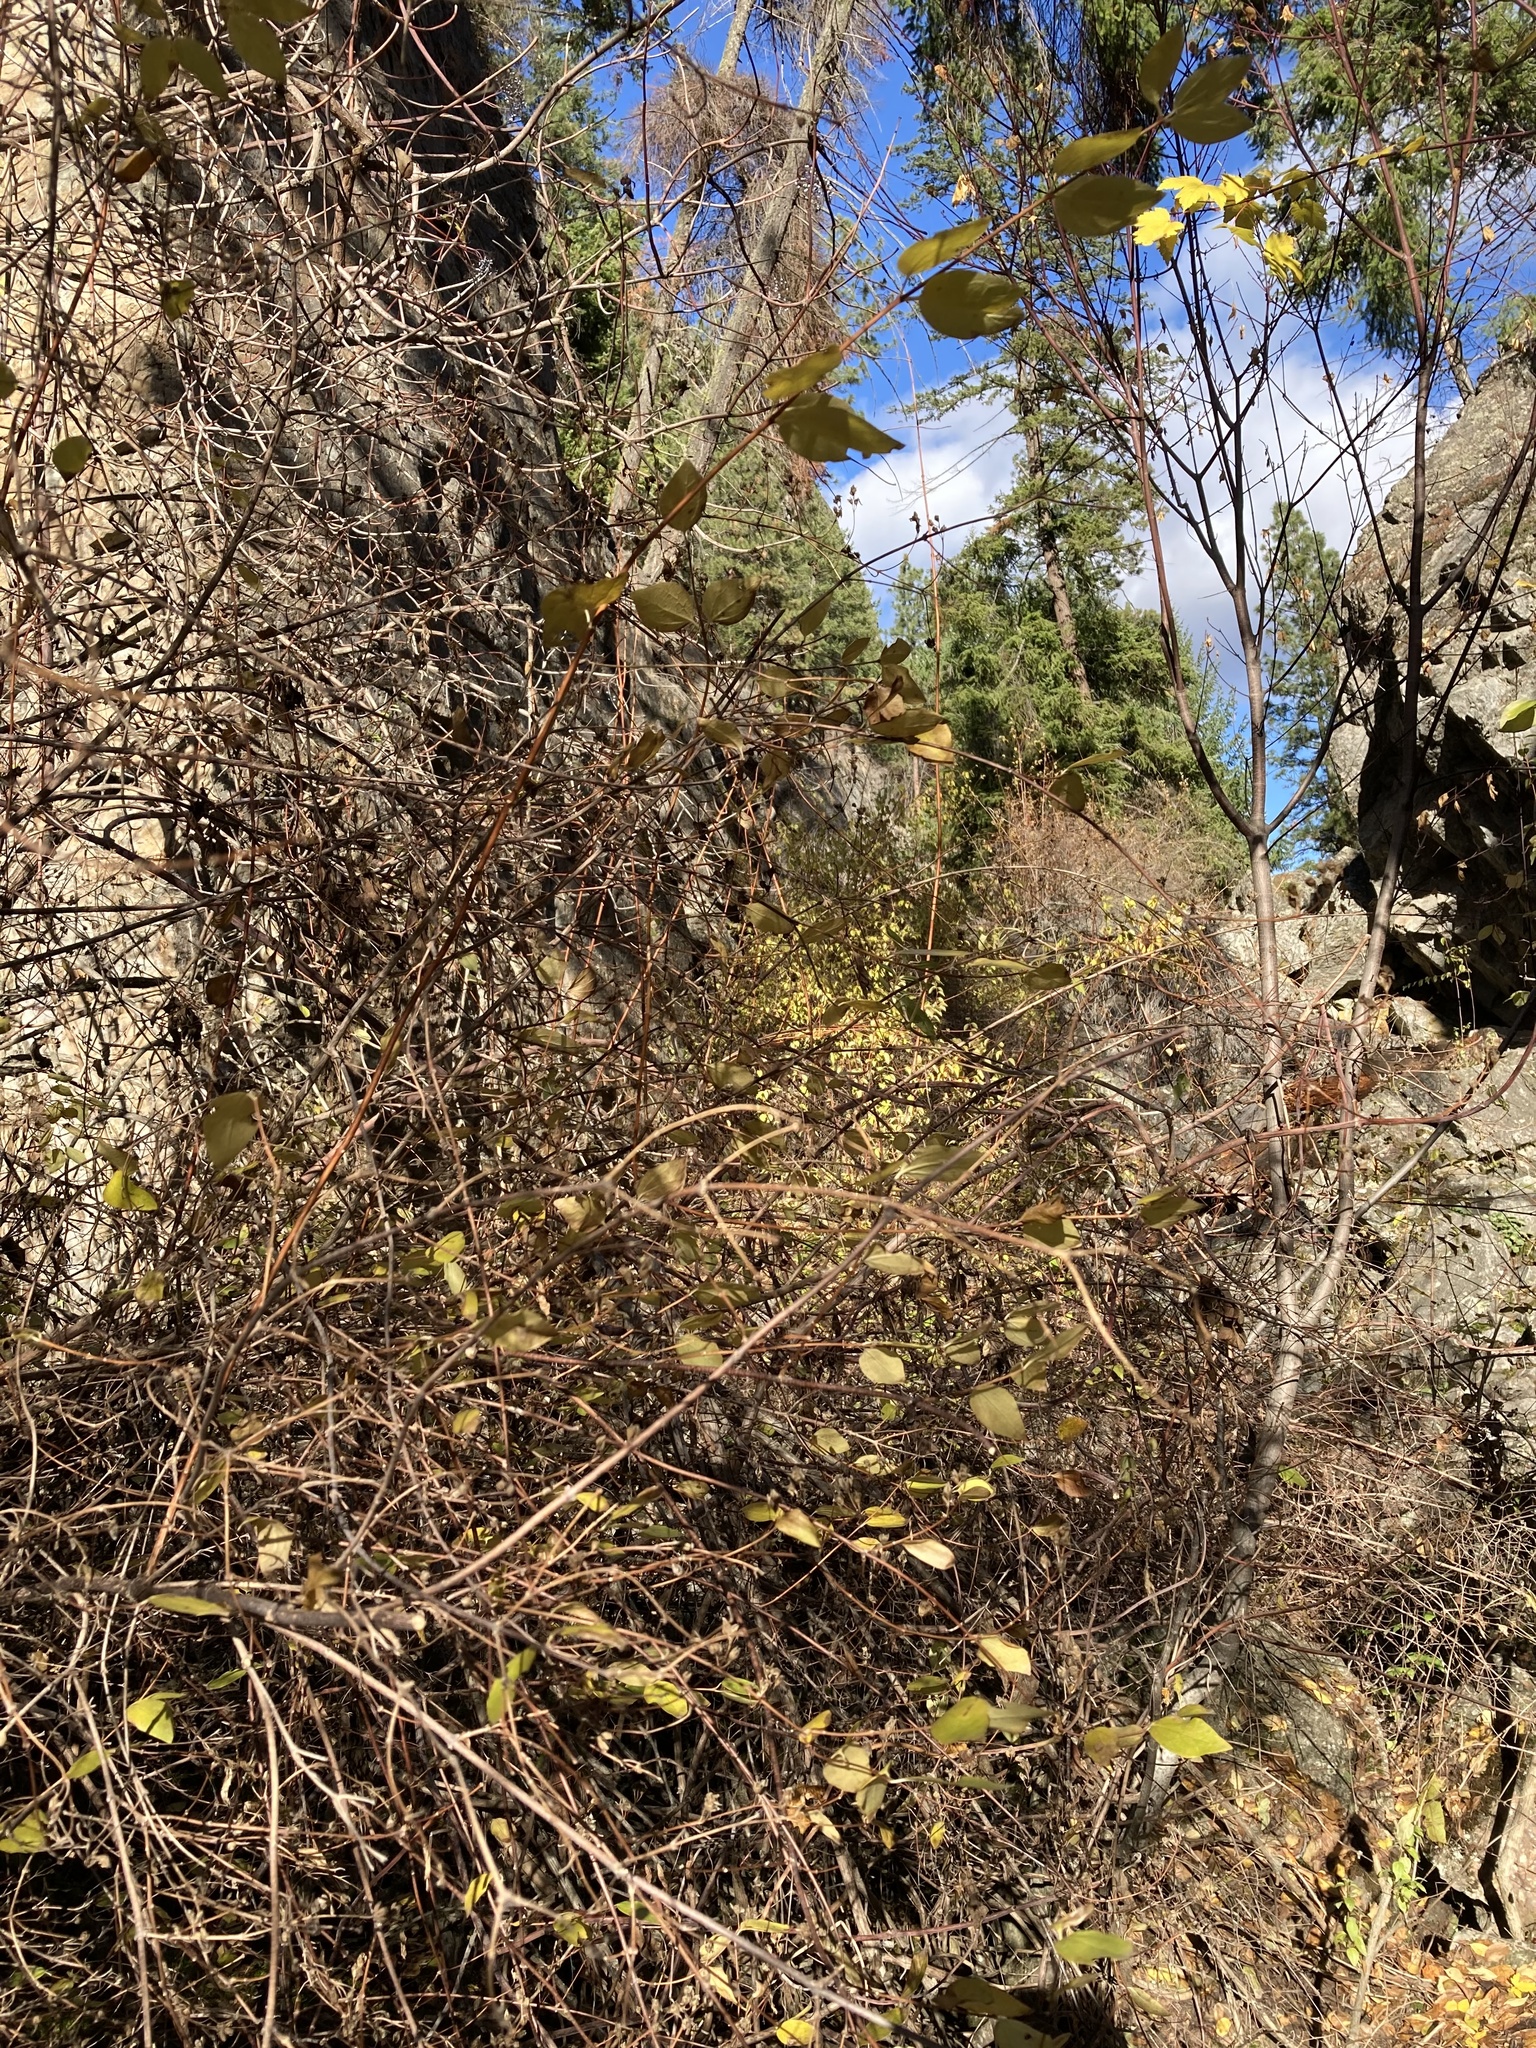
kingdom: Plantae
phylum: Tracheophyta
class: Magnoliopsida
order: Cornales
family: Hydrangeaceae
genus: Philadelphus
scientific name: Philadelphus lewisii
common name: Lewis's mock orange
